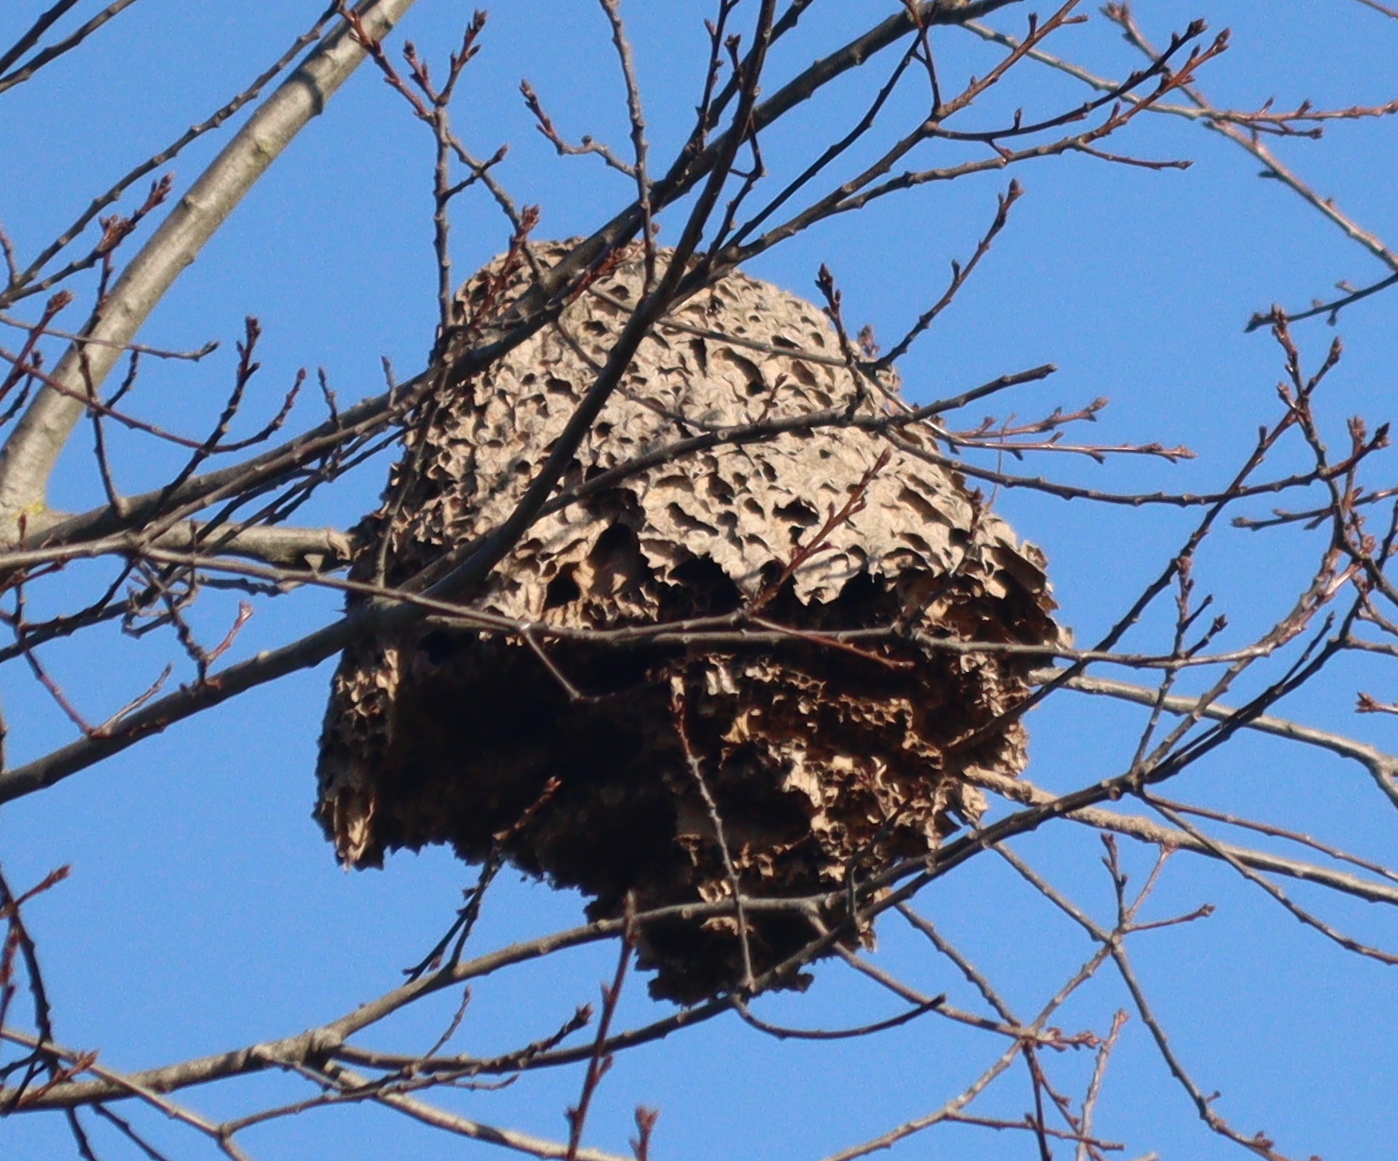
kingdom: Animalia
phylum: Arthropoda
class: Insecta
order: Hymenoptera
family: Vespidae
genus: Vespa
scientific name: Vespa velutina
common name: Asian hornet
